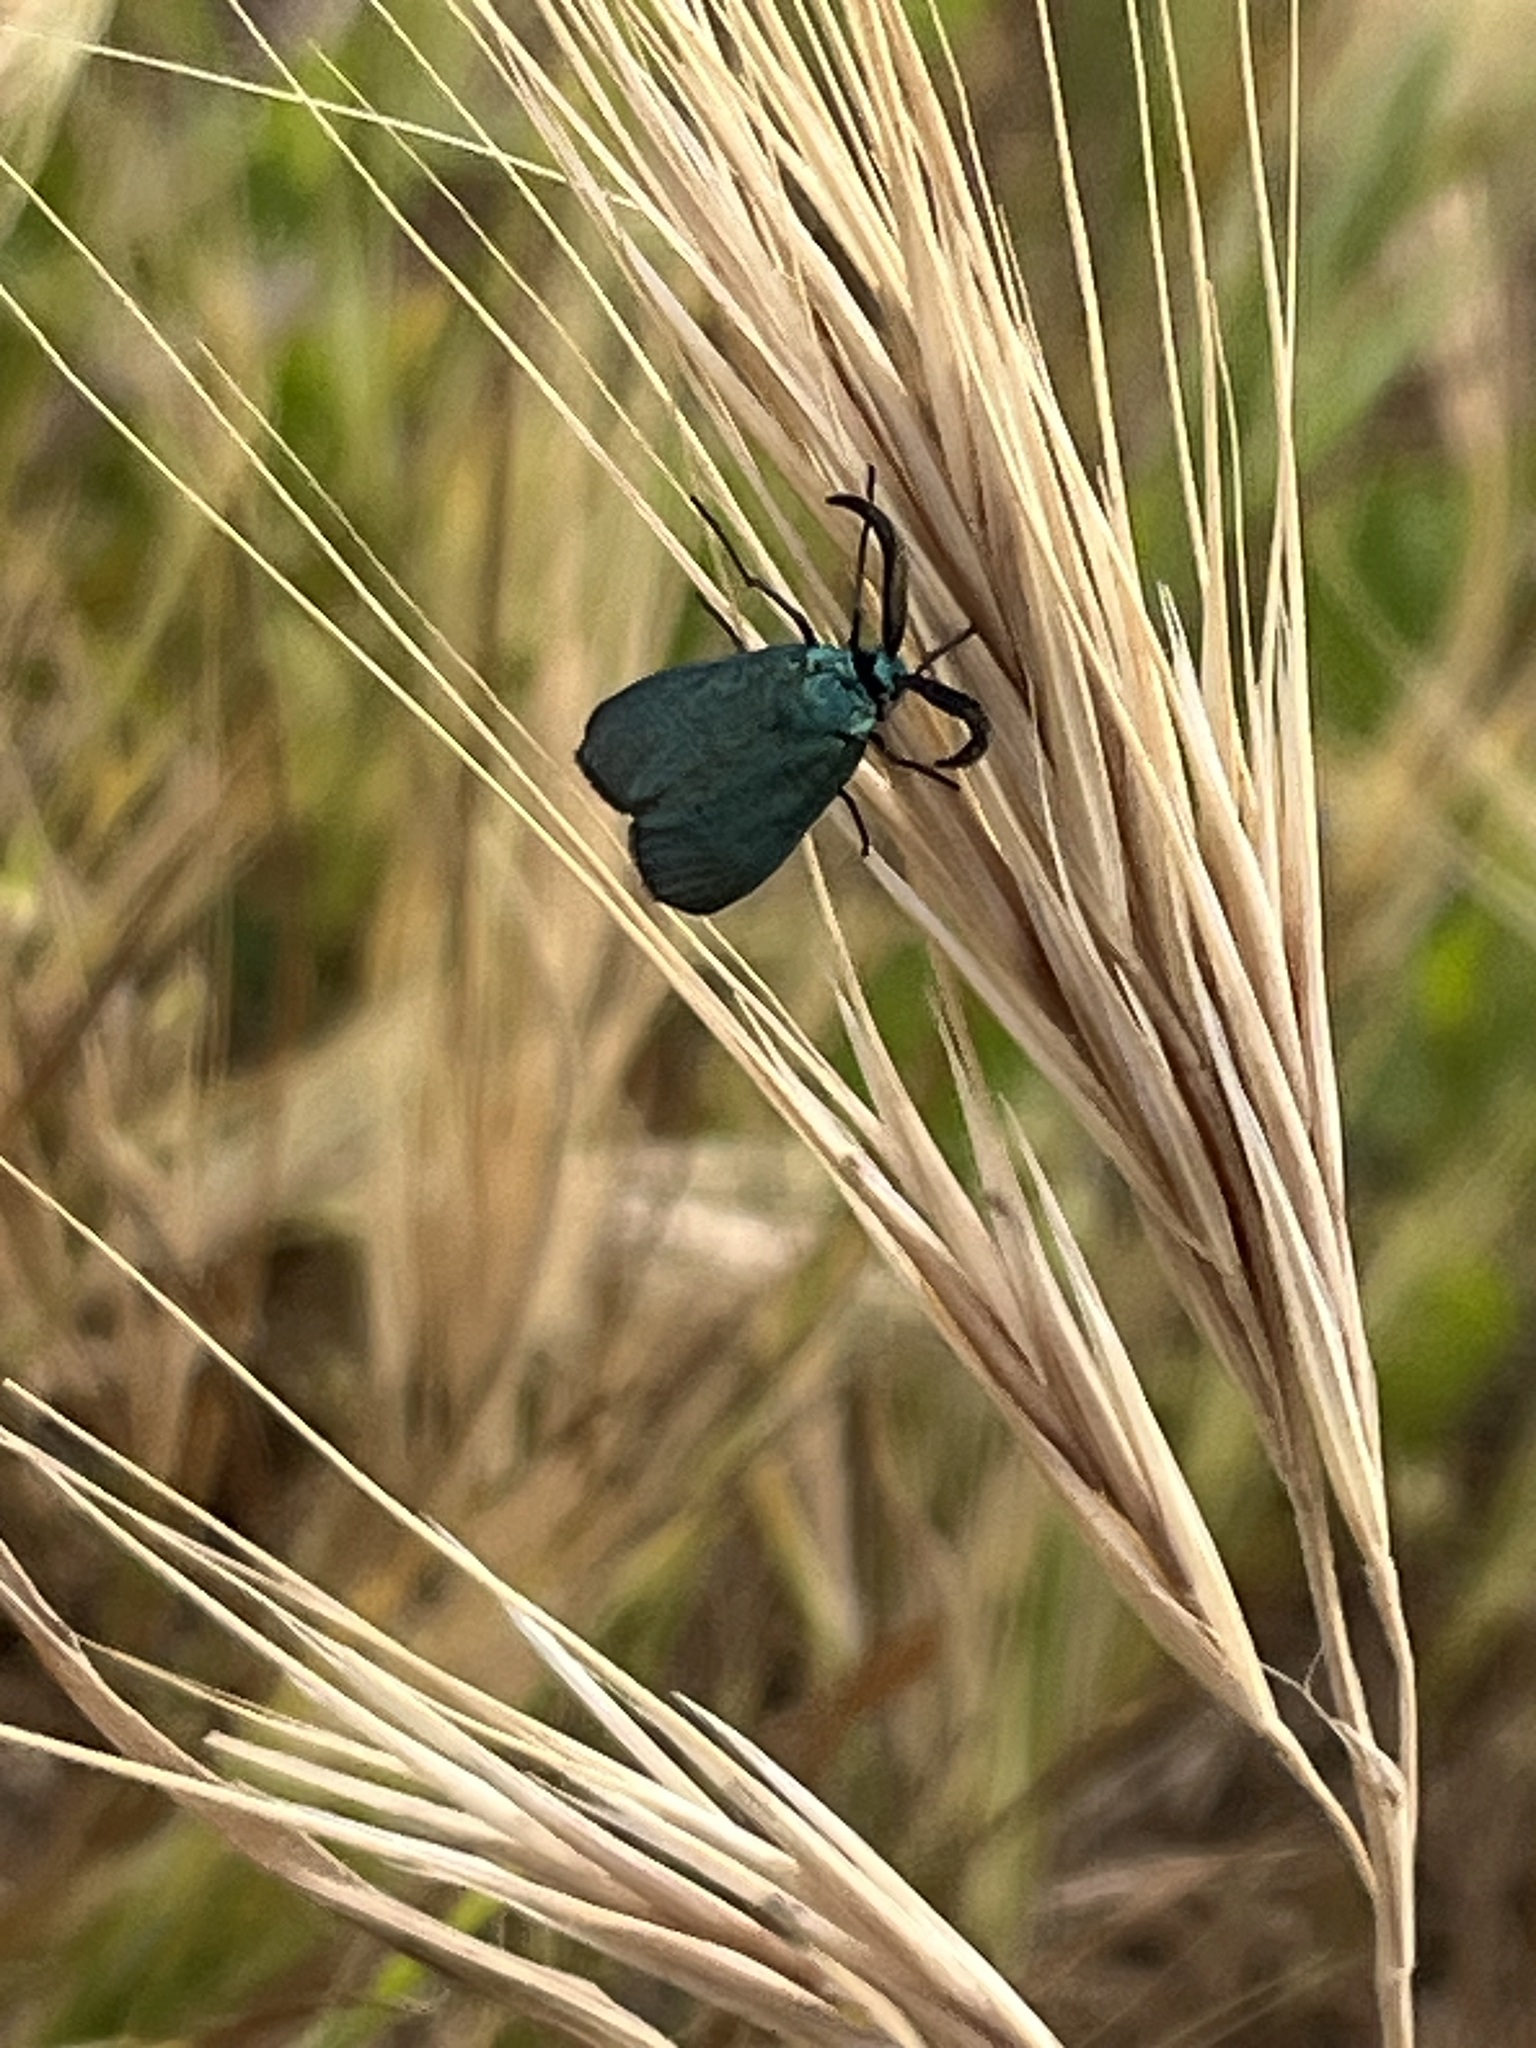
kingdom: Animalia
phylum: Arthropoda
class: Insecta
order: Lepidoptera
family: Zygaenidae
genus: Adscita
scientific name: Adscita statices
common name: Forester
